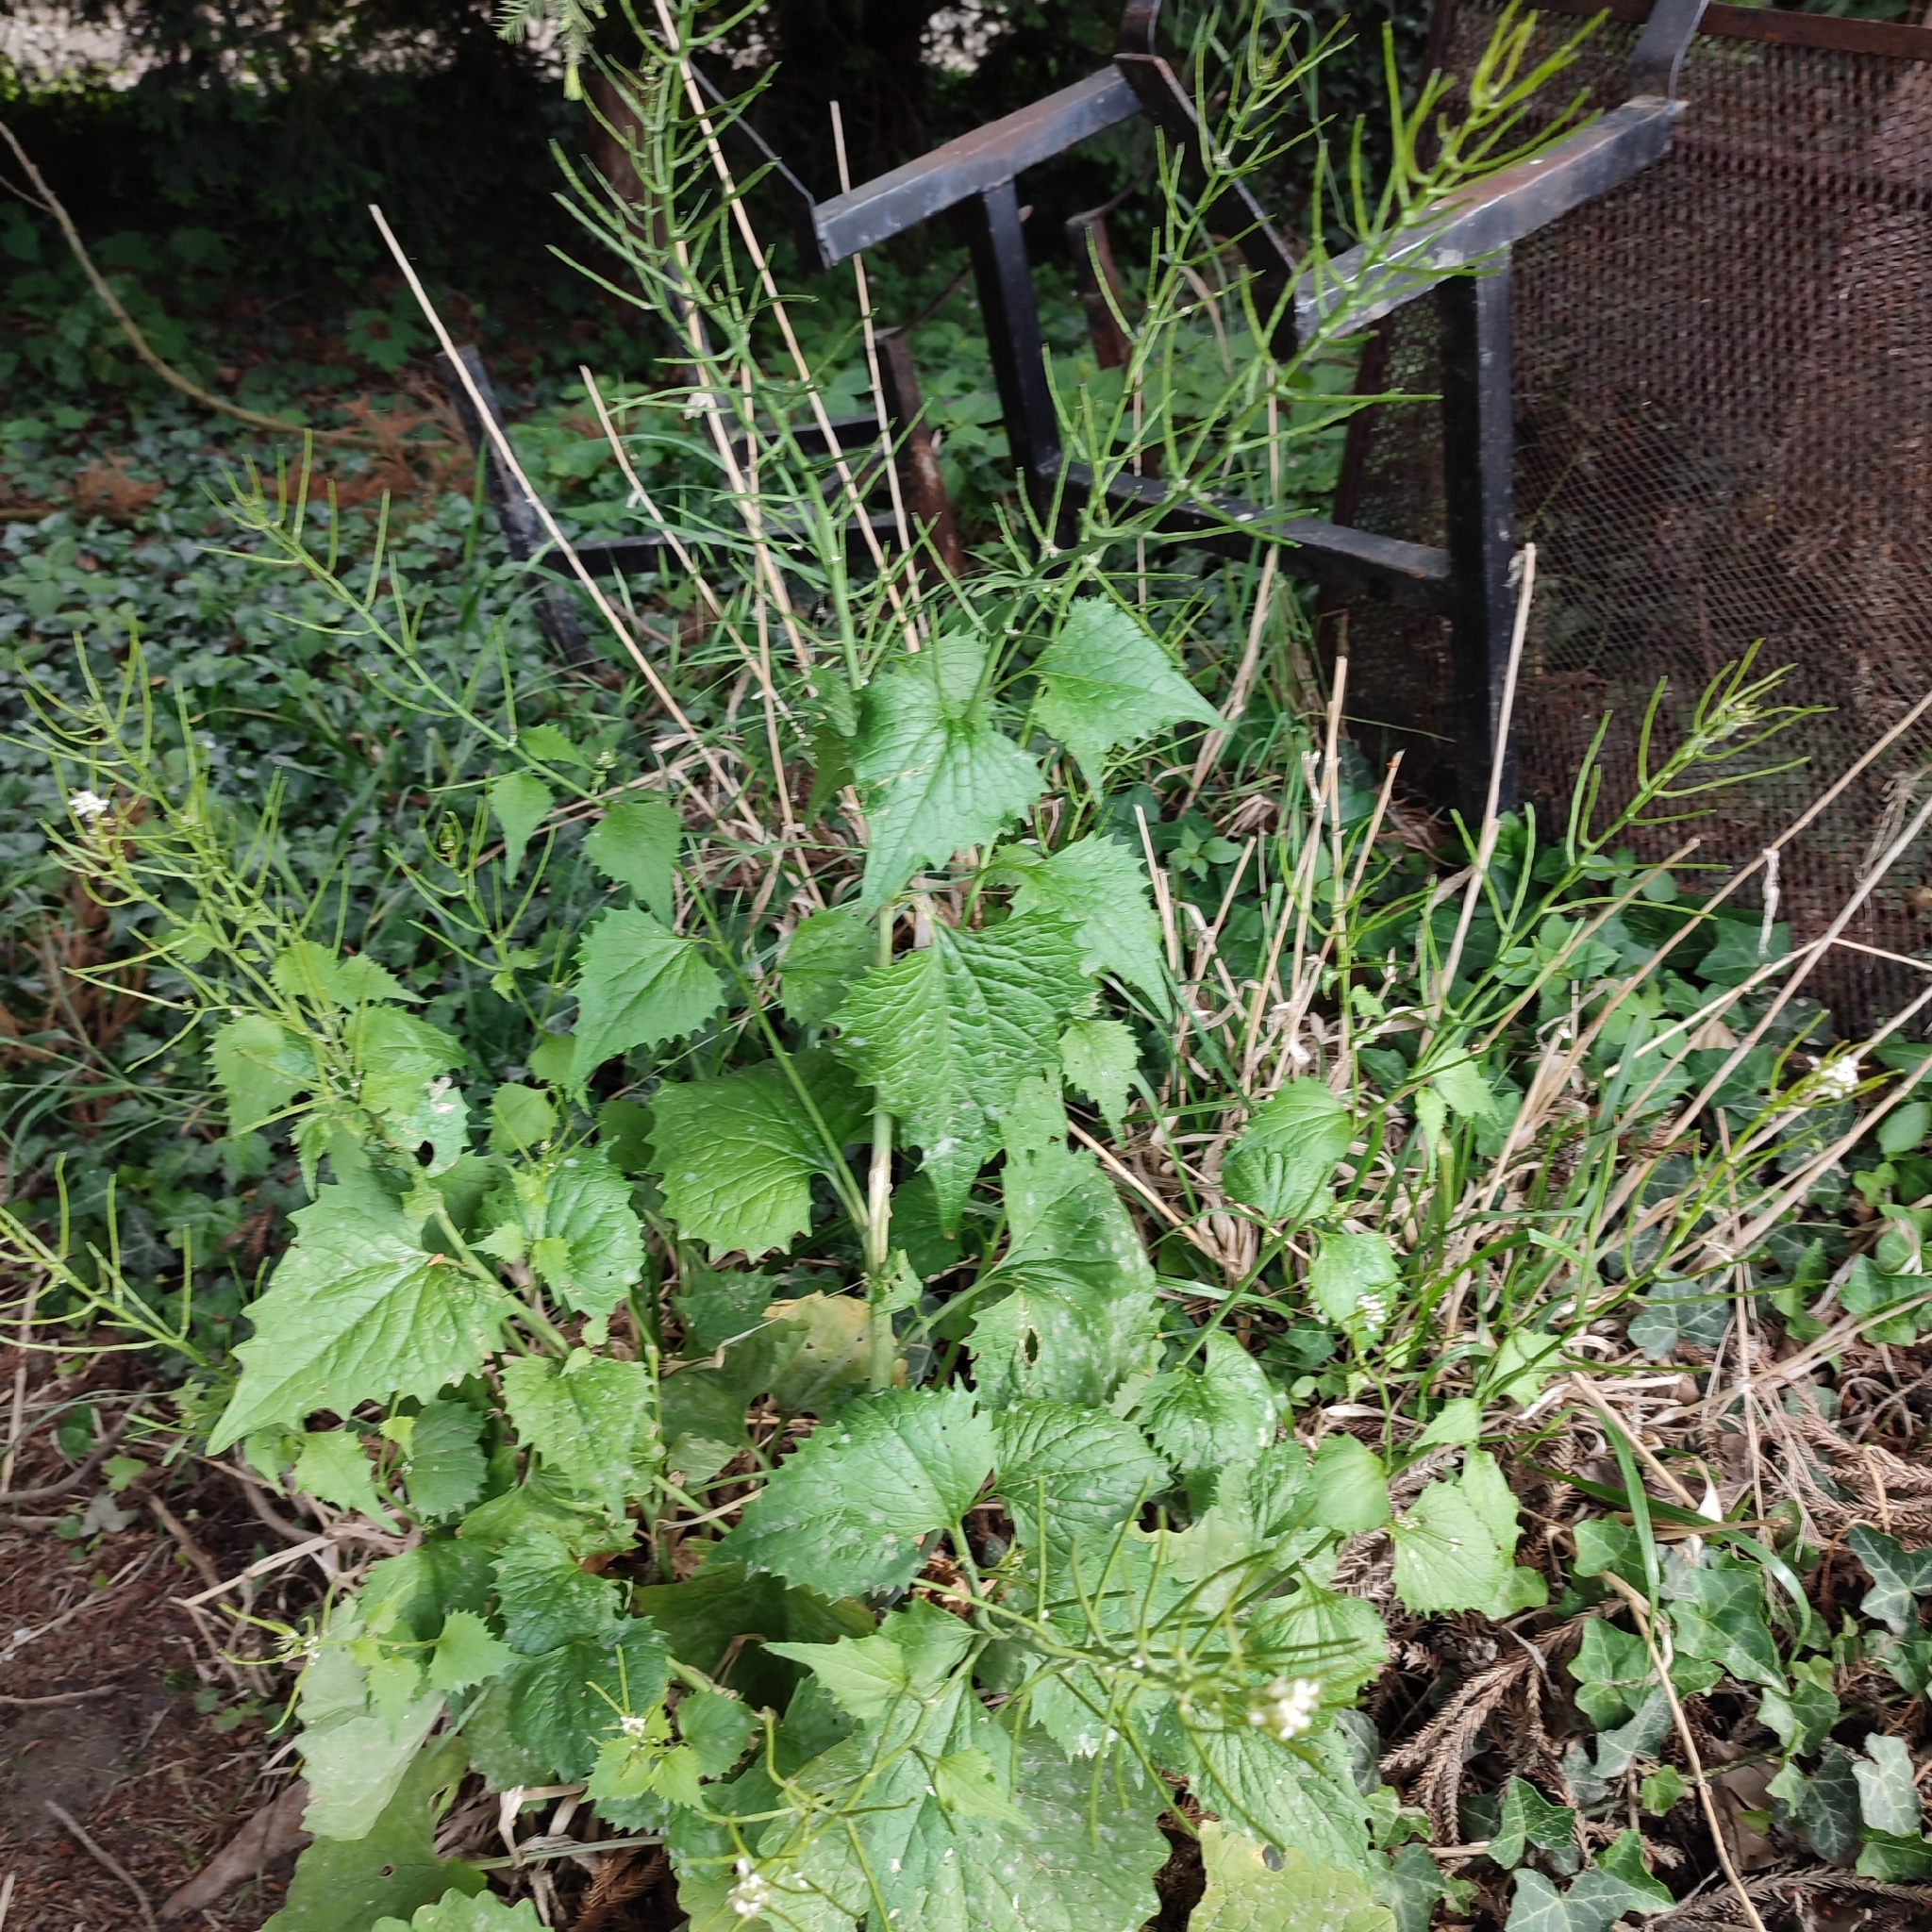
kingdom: Plantae
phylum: Tracheophyta
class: Magnoliopsida
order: Brassicales
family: Brassicaceae
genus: Alliaria
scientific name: Alliaria petiolata
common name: Garlic mustard
